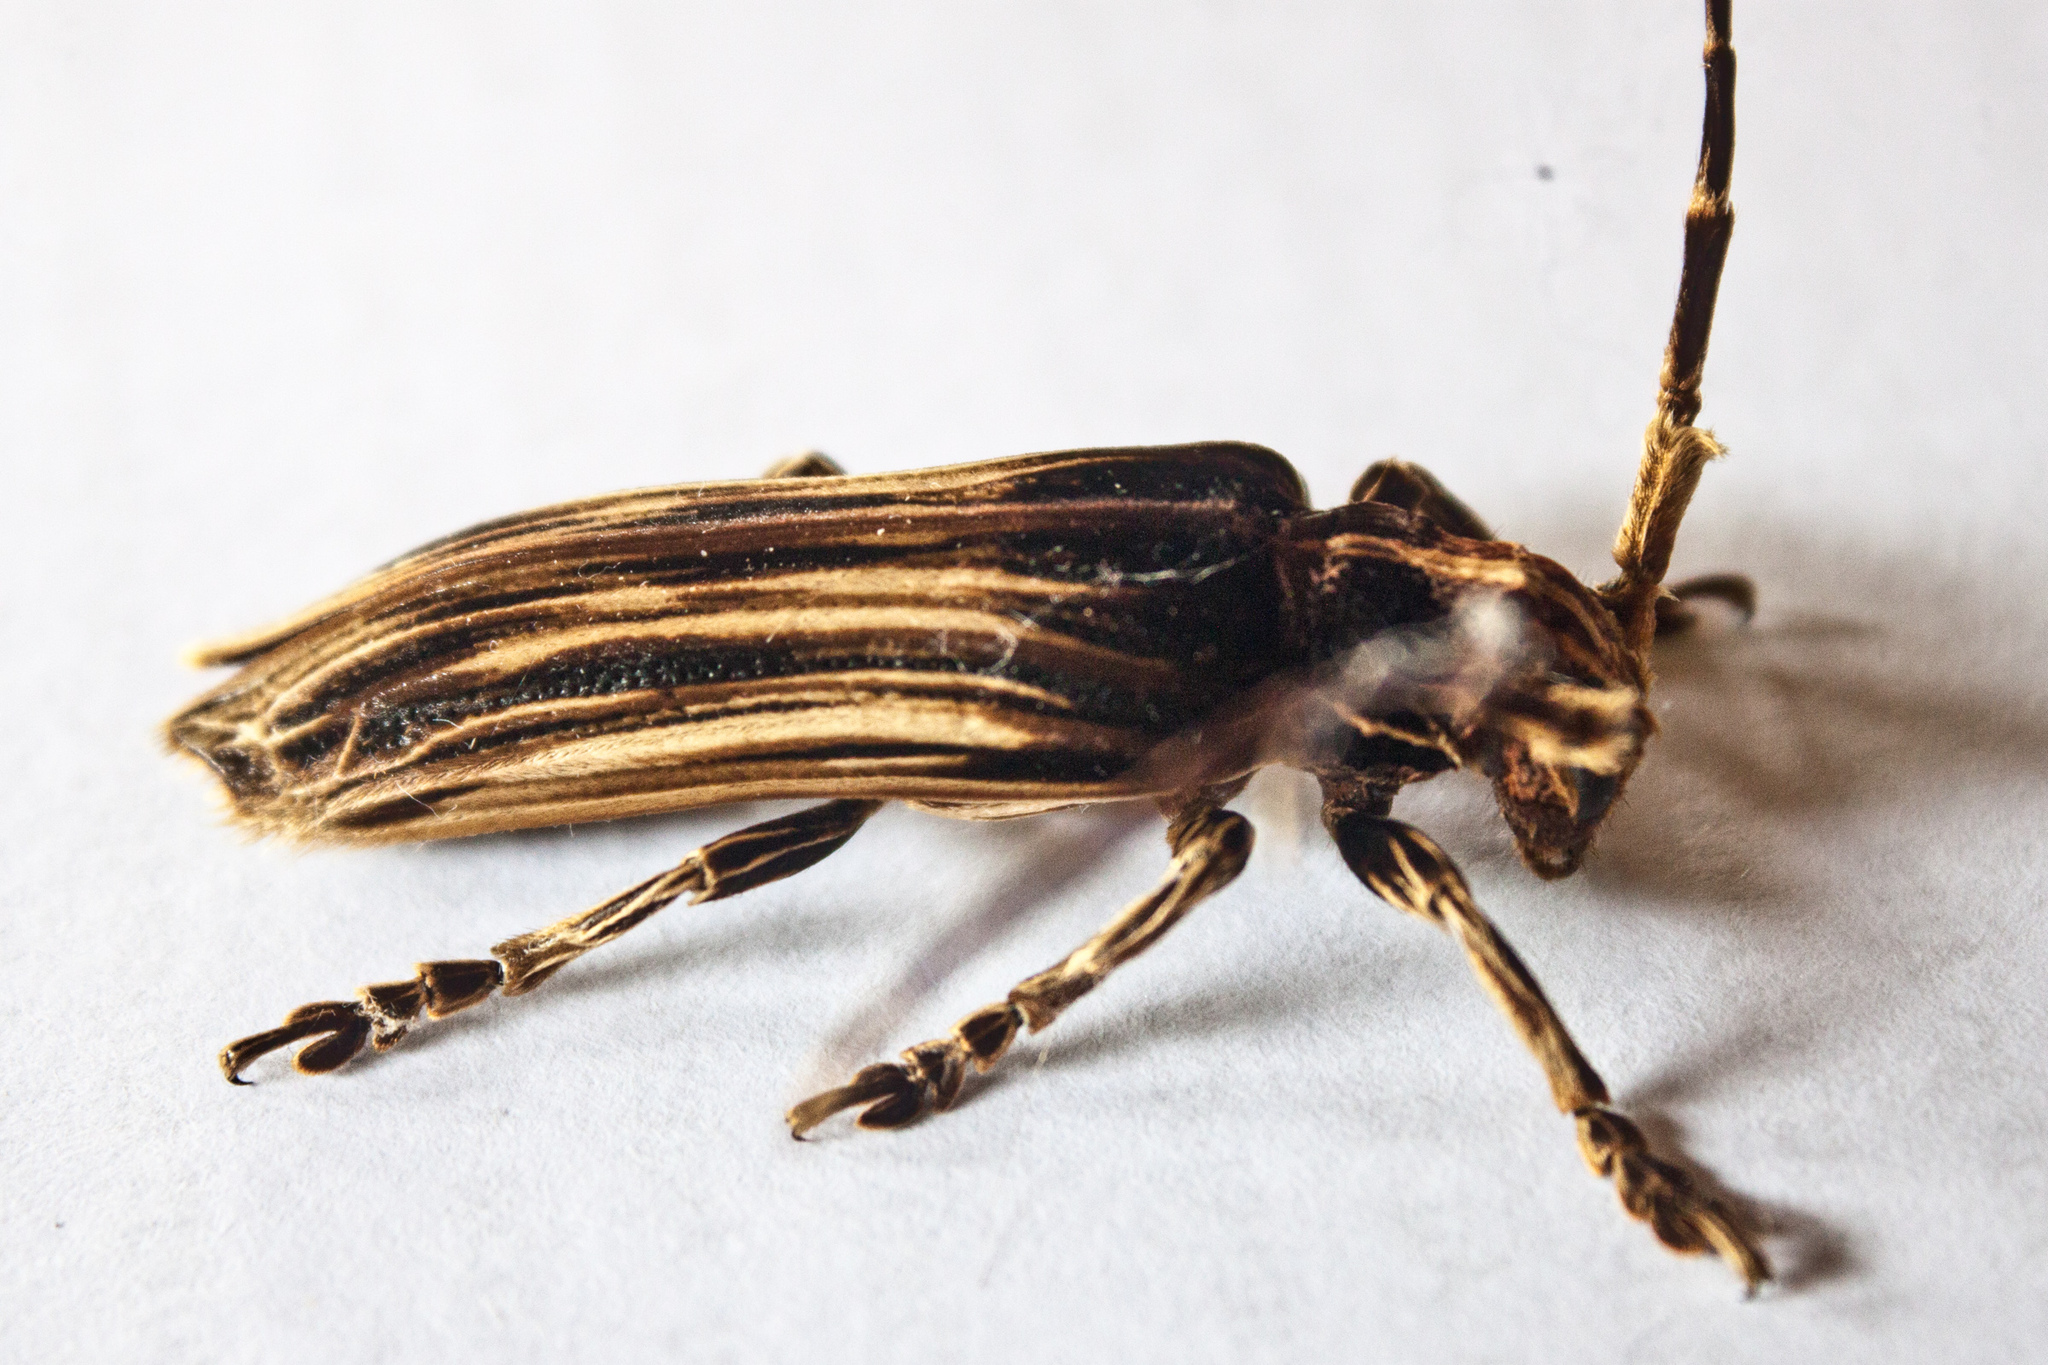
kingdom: Animalia
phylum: Arthropoda
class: Insecta
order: Coleoptera
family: Cerambycidae
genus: Xylorhiza
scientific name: Xylorhiza adusta
